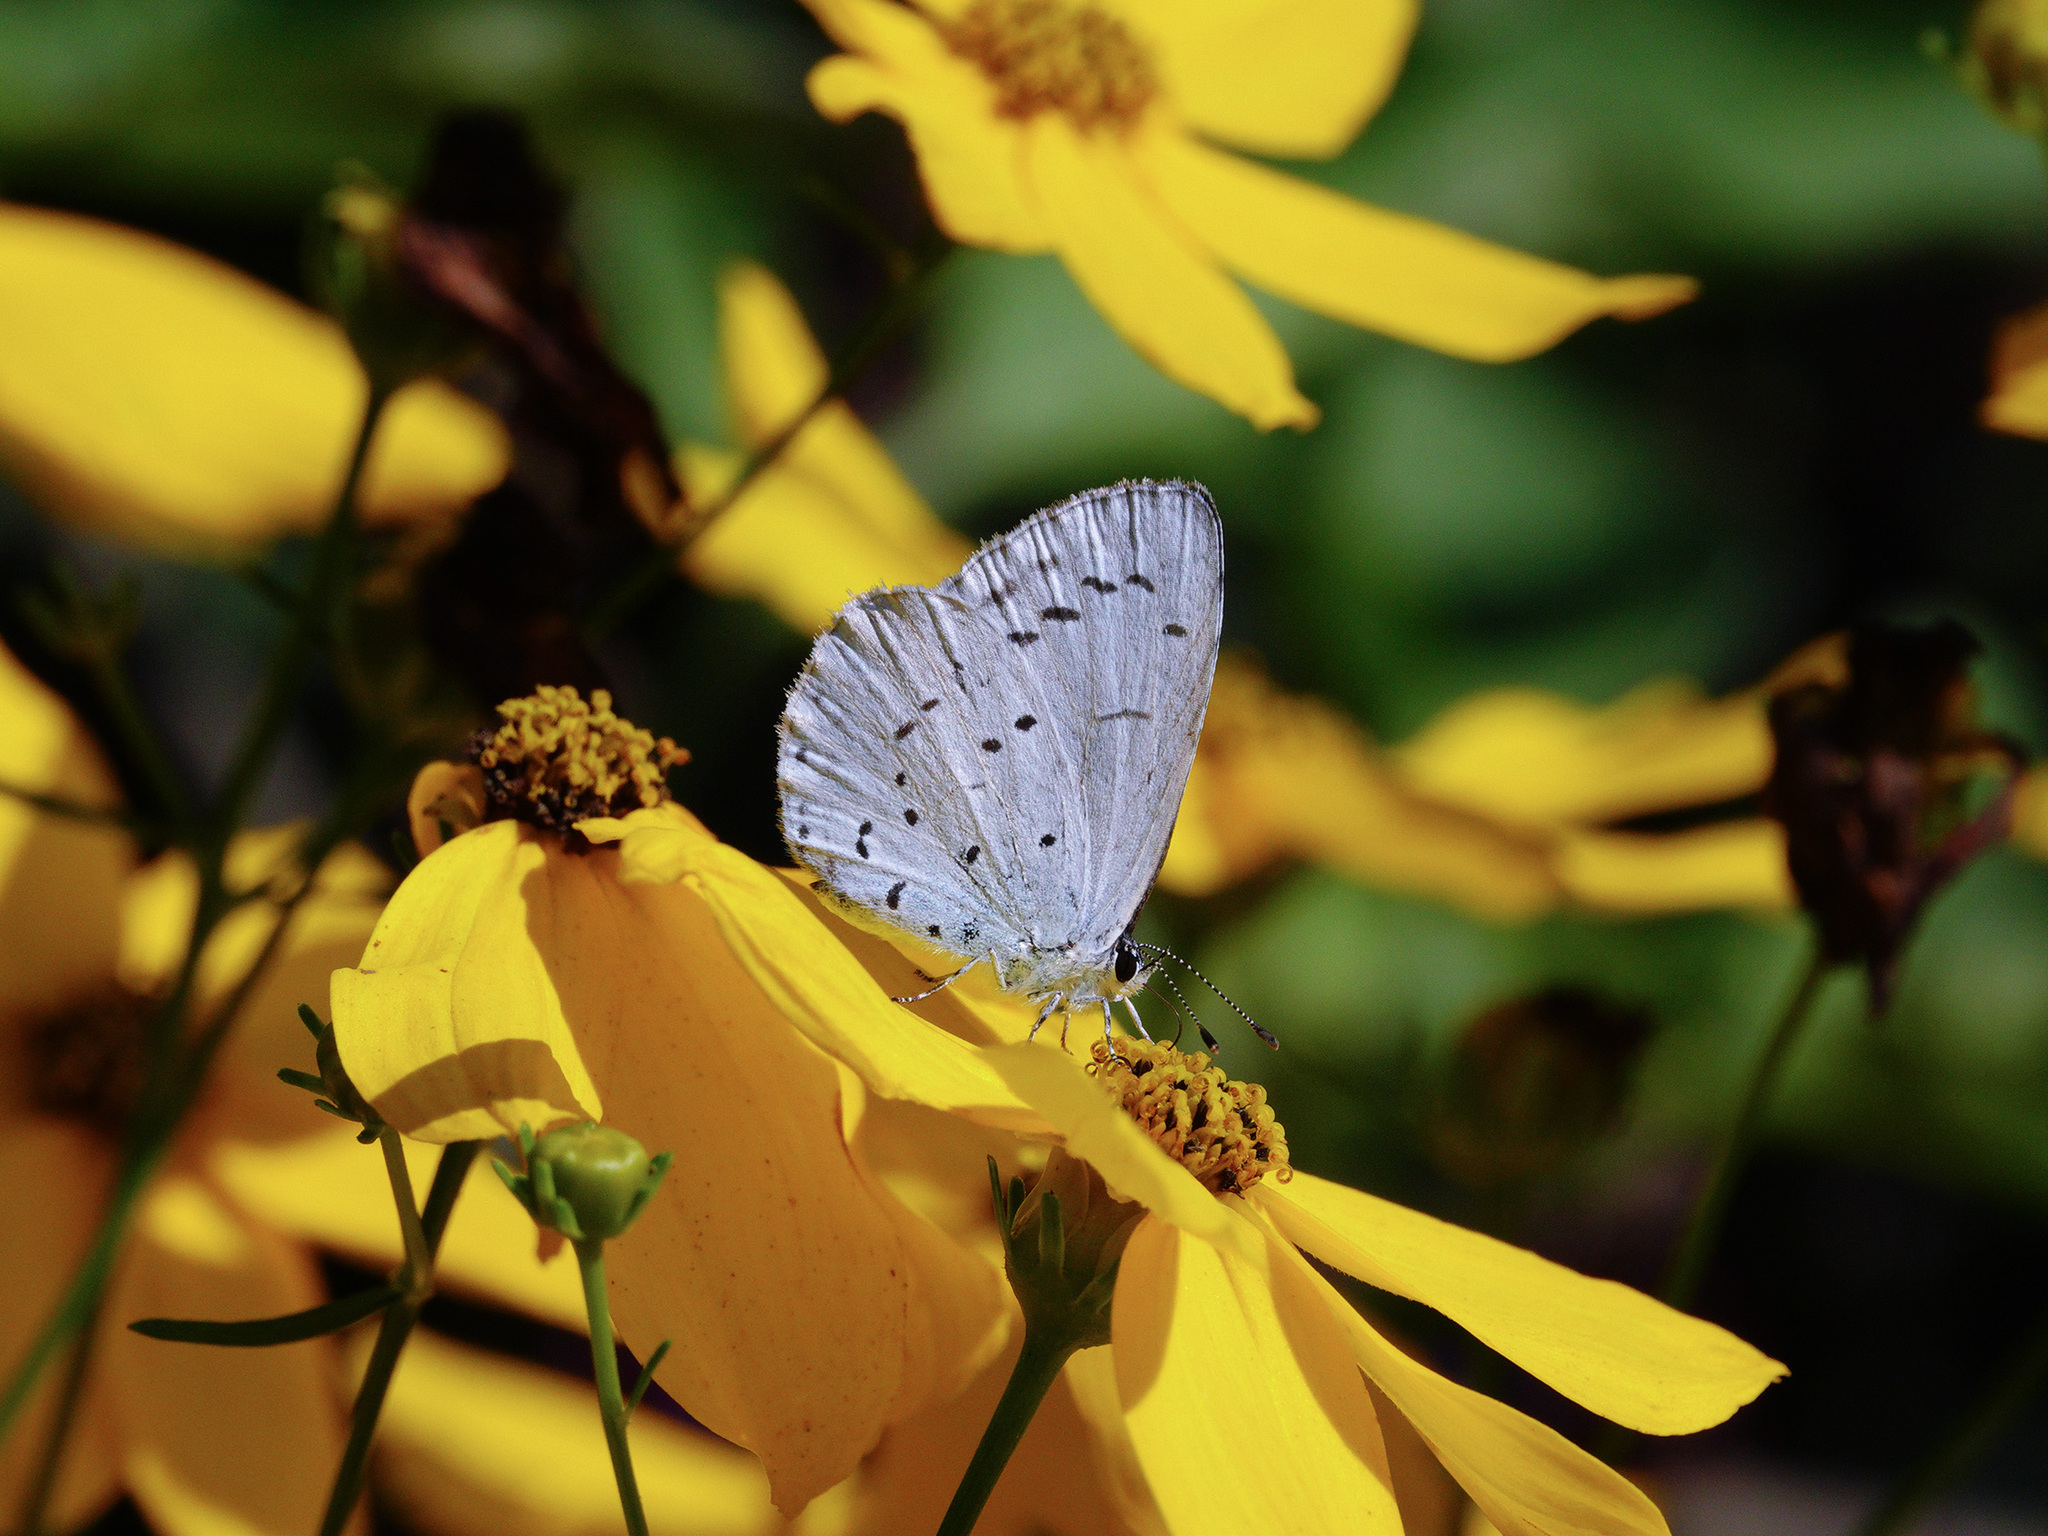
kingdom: Animalia
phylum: Arthropoda
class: Insecta
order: Lepidoptera
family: Lycaenidae
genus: Celastrina
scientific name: Celastrina argiolus
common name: Holly blue
